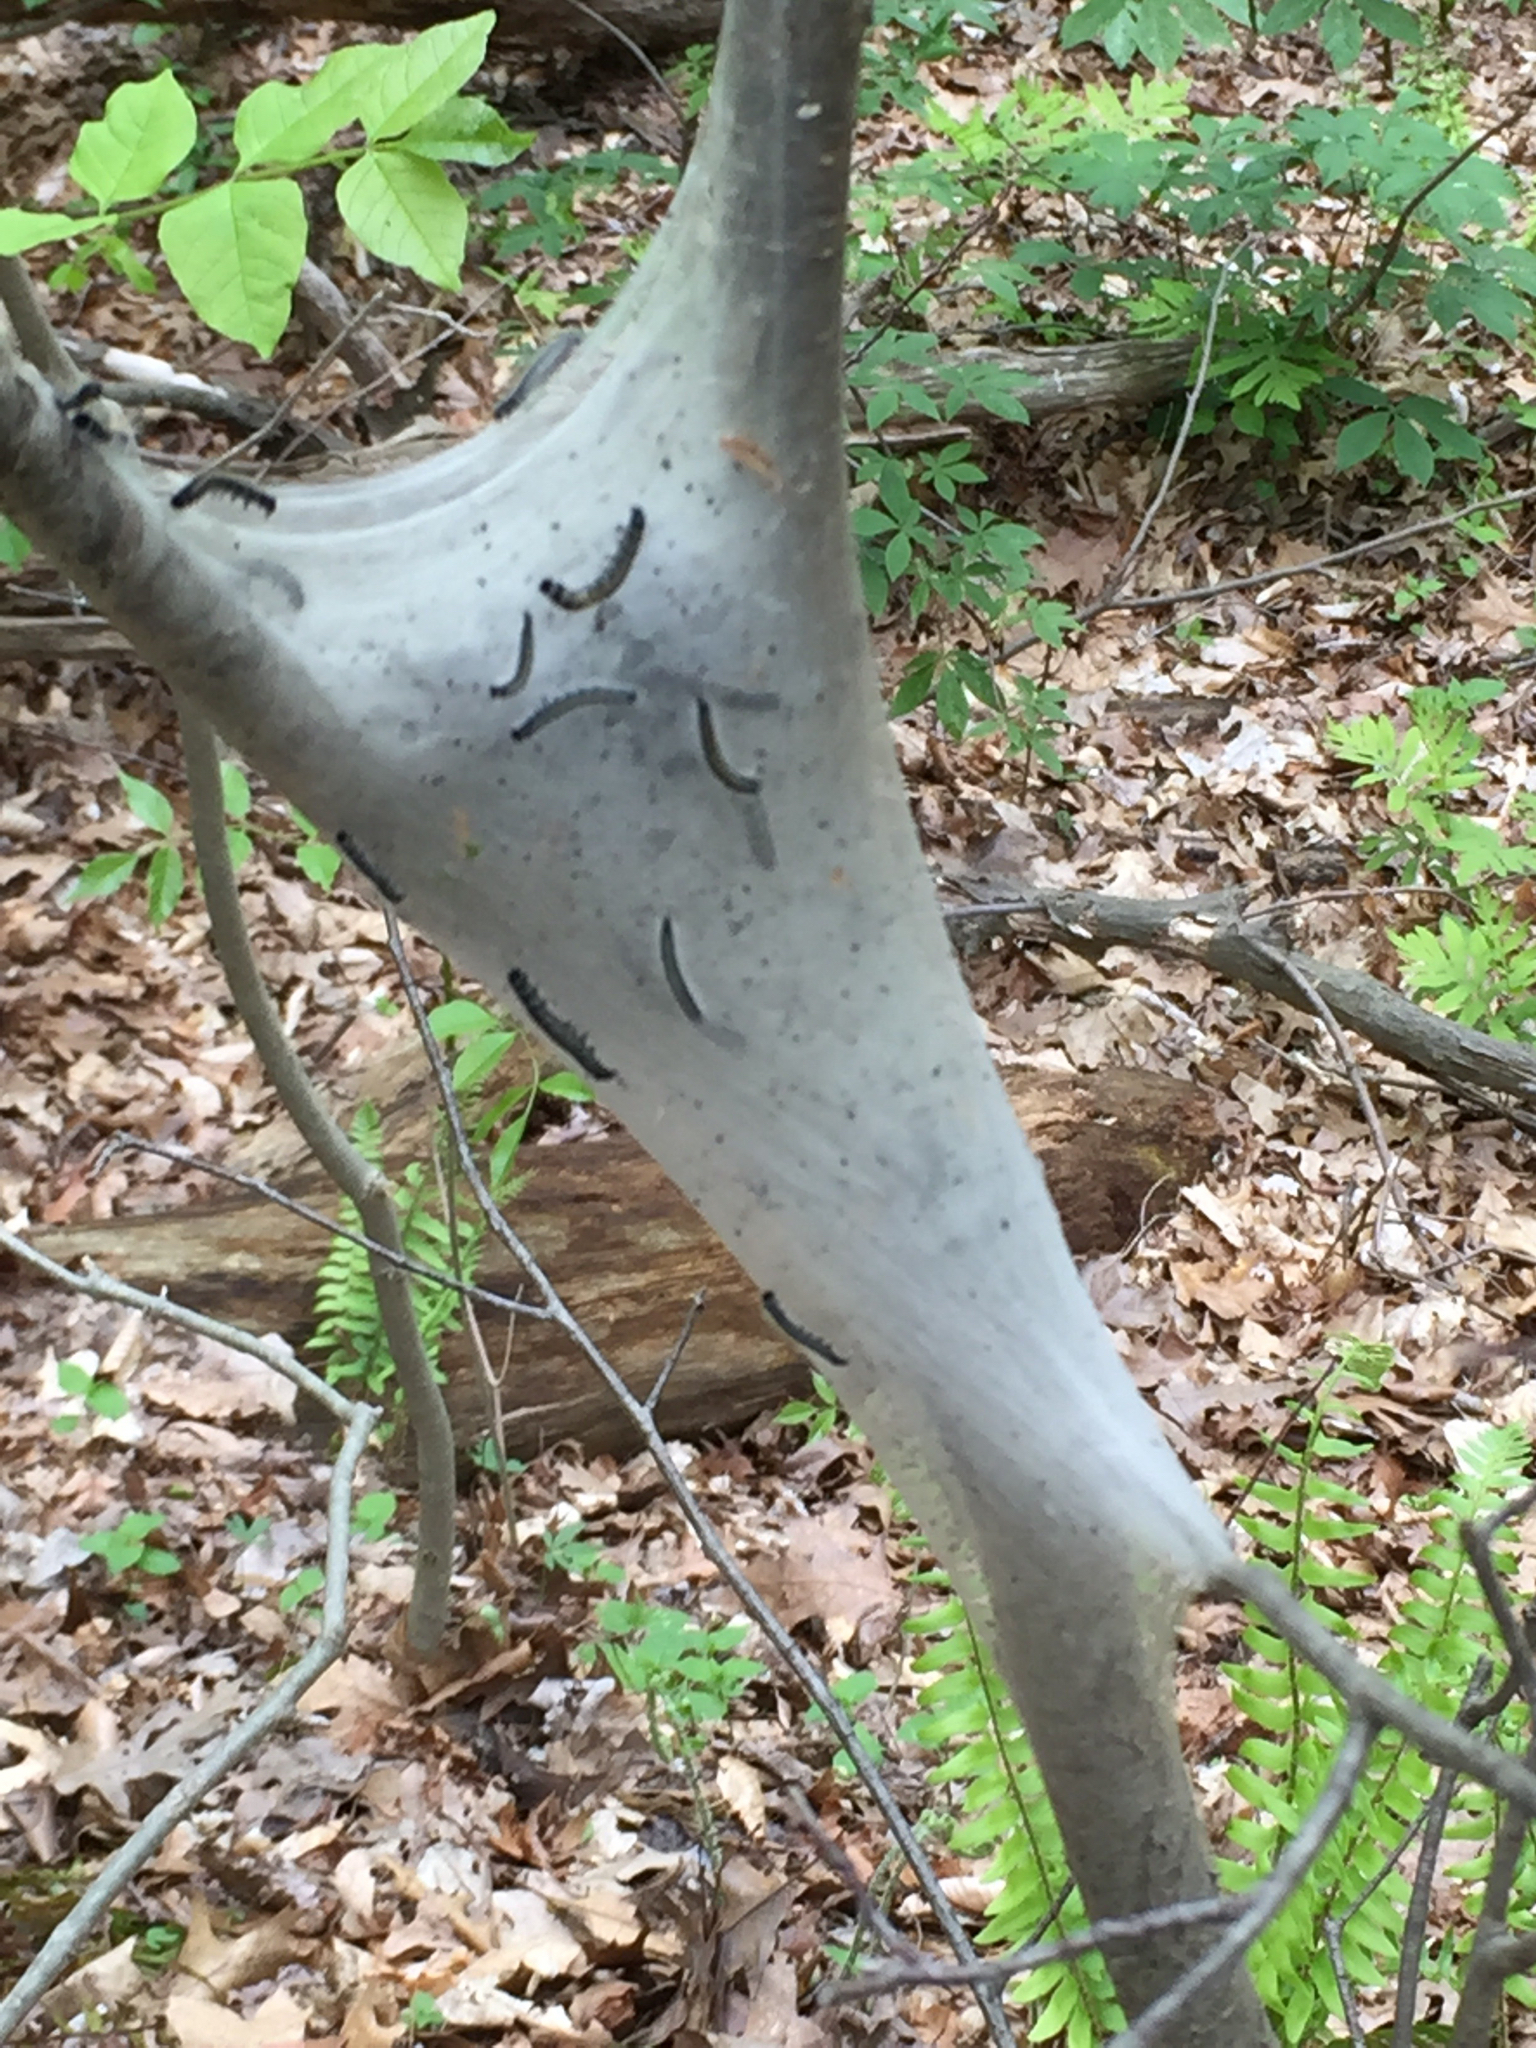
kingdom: Animalia
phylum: Arthropoda
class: Insecta
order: Lepidoptera
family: Lasiocampidae
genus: Malacosoma
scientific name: Malacosoma americana
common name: Eastern tent caterpillar moth
